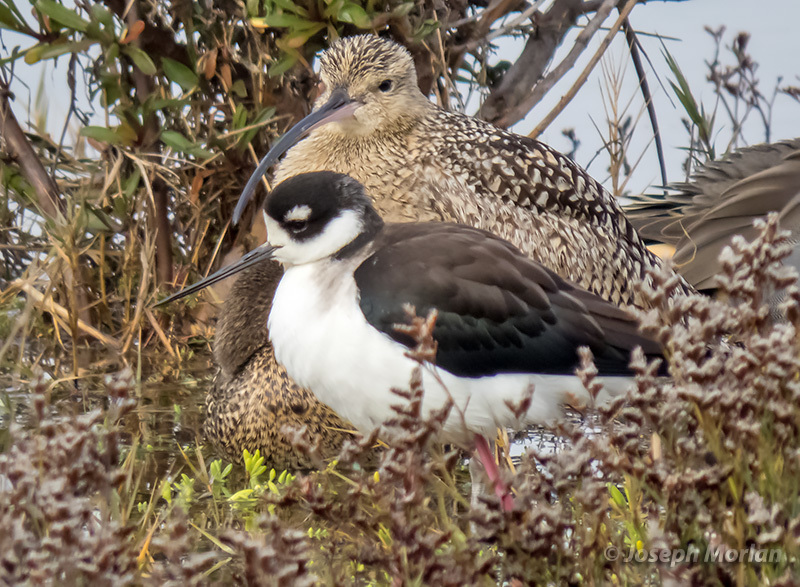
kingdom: Animalia
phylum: Chordata
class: Aves
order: Charadriiformes
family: Recurvirostridae
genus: Himantopus
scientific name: Himantopus mexicanus
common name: Black-necked stilt
